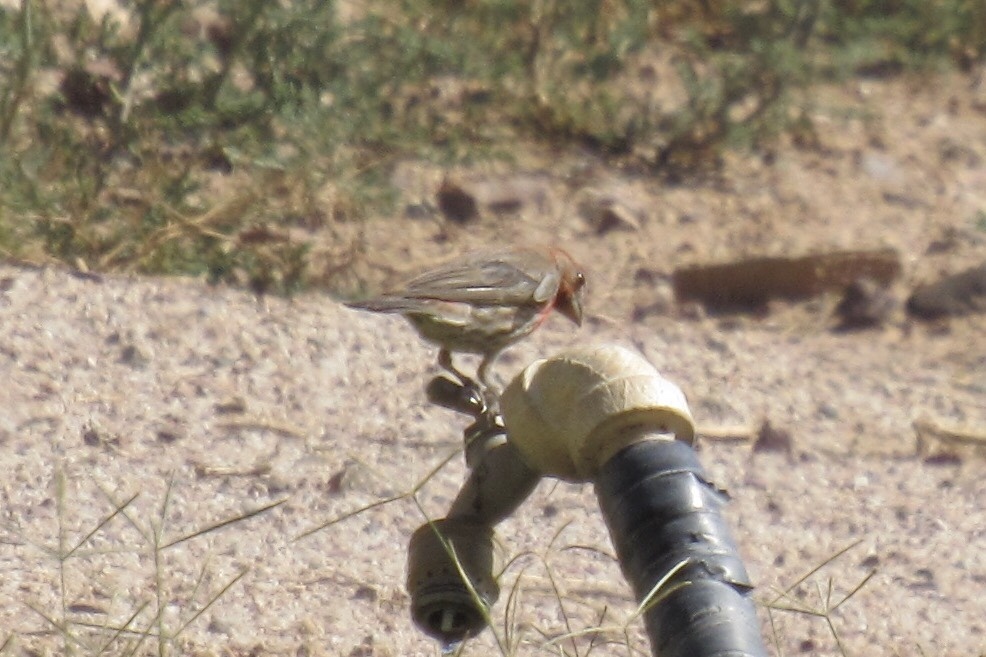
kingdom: Animalia
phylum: Chordata
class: Aves
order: Passeriformes
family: Fringillidae
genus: Haemorhous
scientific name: Haemorhous mexicanus
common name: House finch
